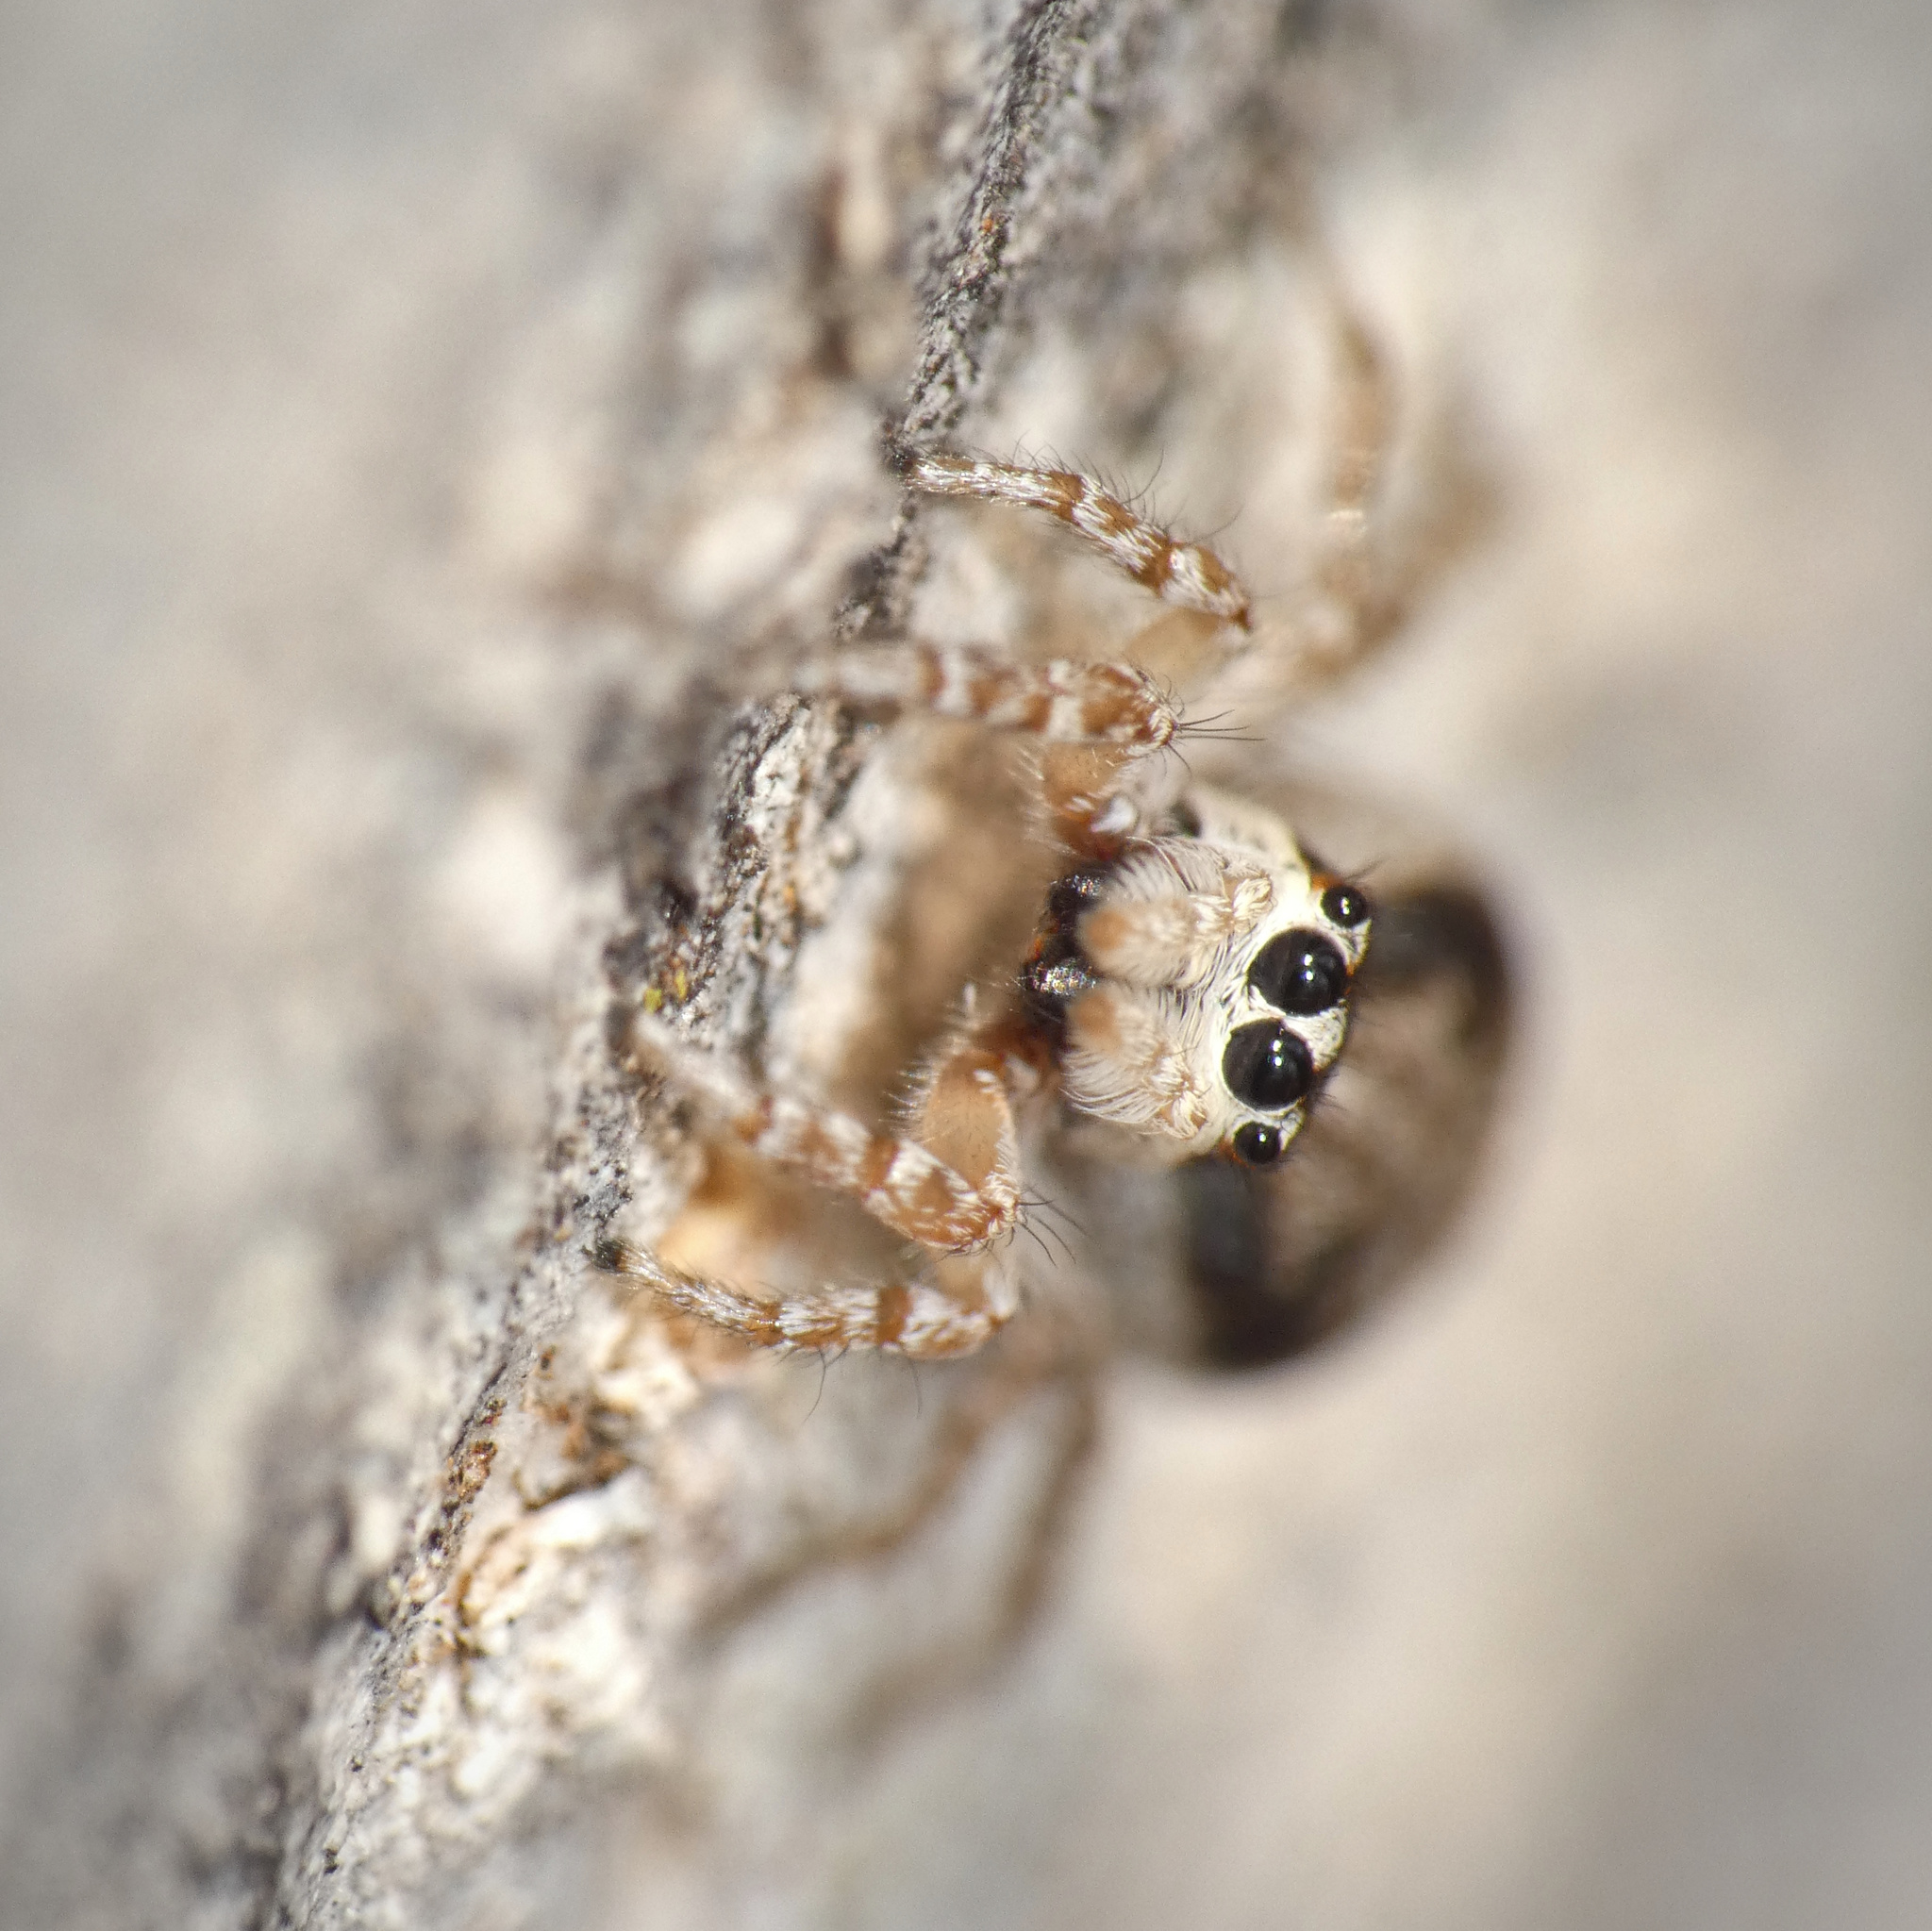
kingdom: Animalia
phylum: Arthropoda
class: Arachnida
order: Araneae
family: Salticidae
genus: Menemerus
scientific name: Menemerus carlini
